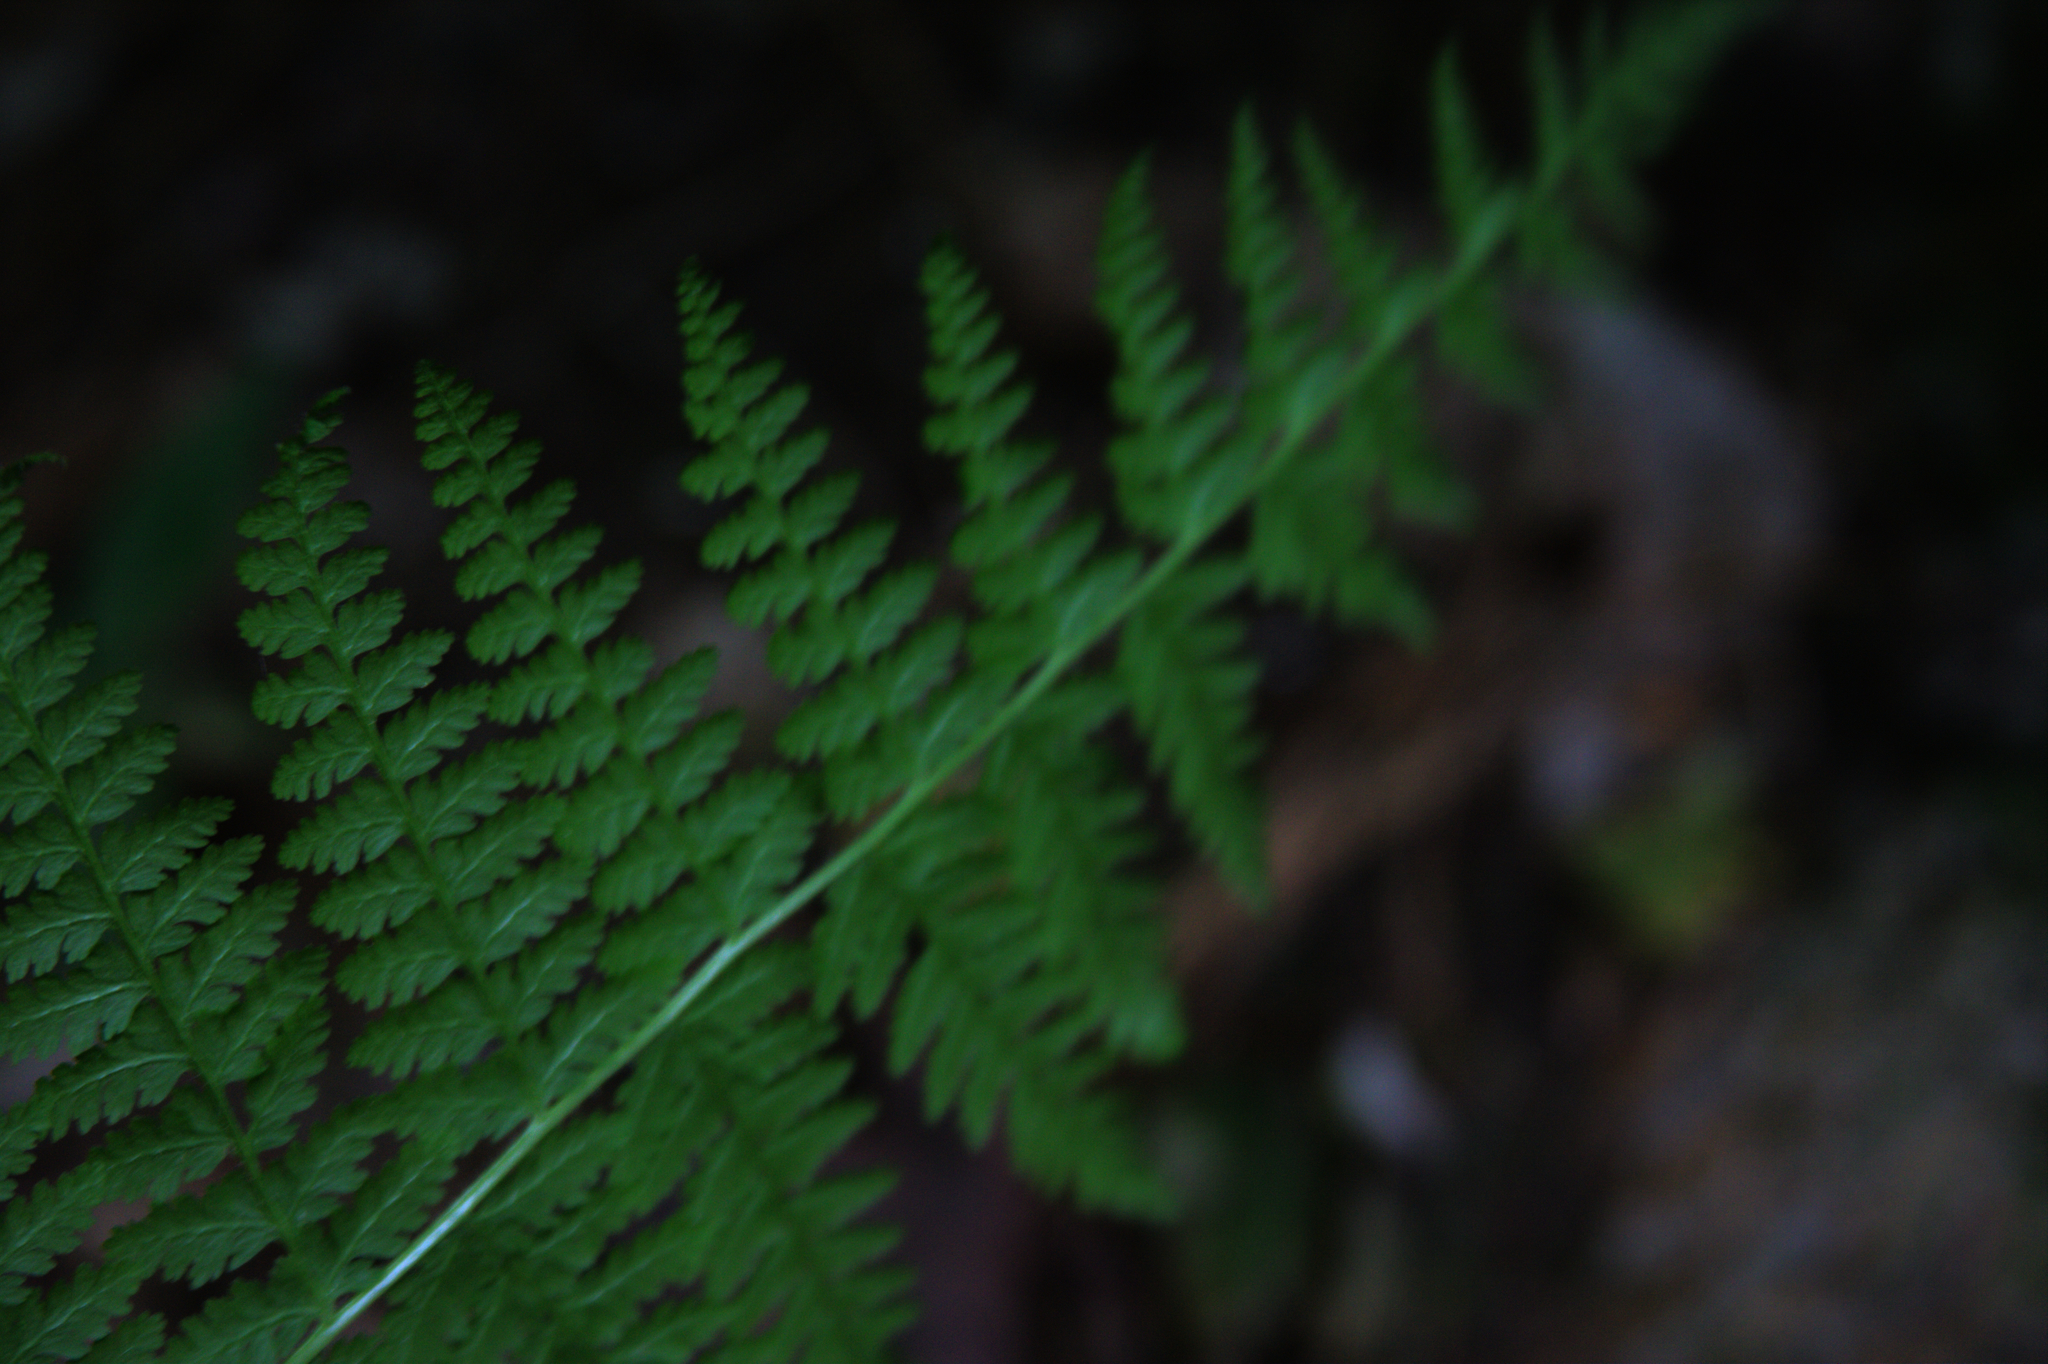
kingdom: Plantae
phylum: Tracheophyta
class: Polypodiopsida
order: Polypodiales
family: Dennstaedtiaceae
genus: Sitobolium
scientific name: Sitobolium punctilobum
